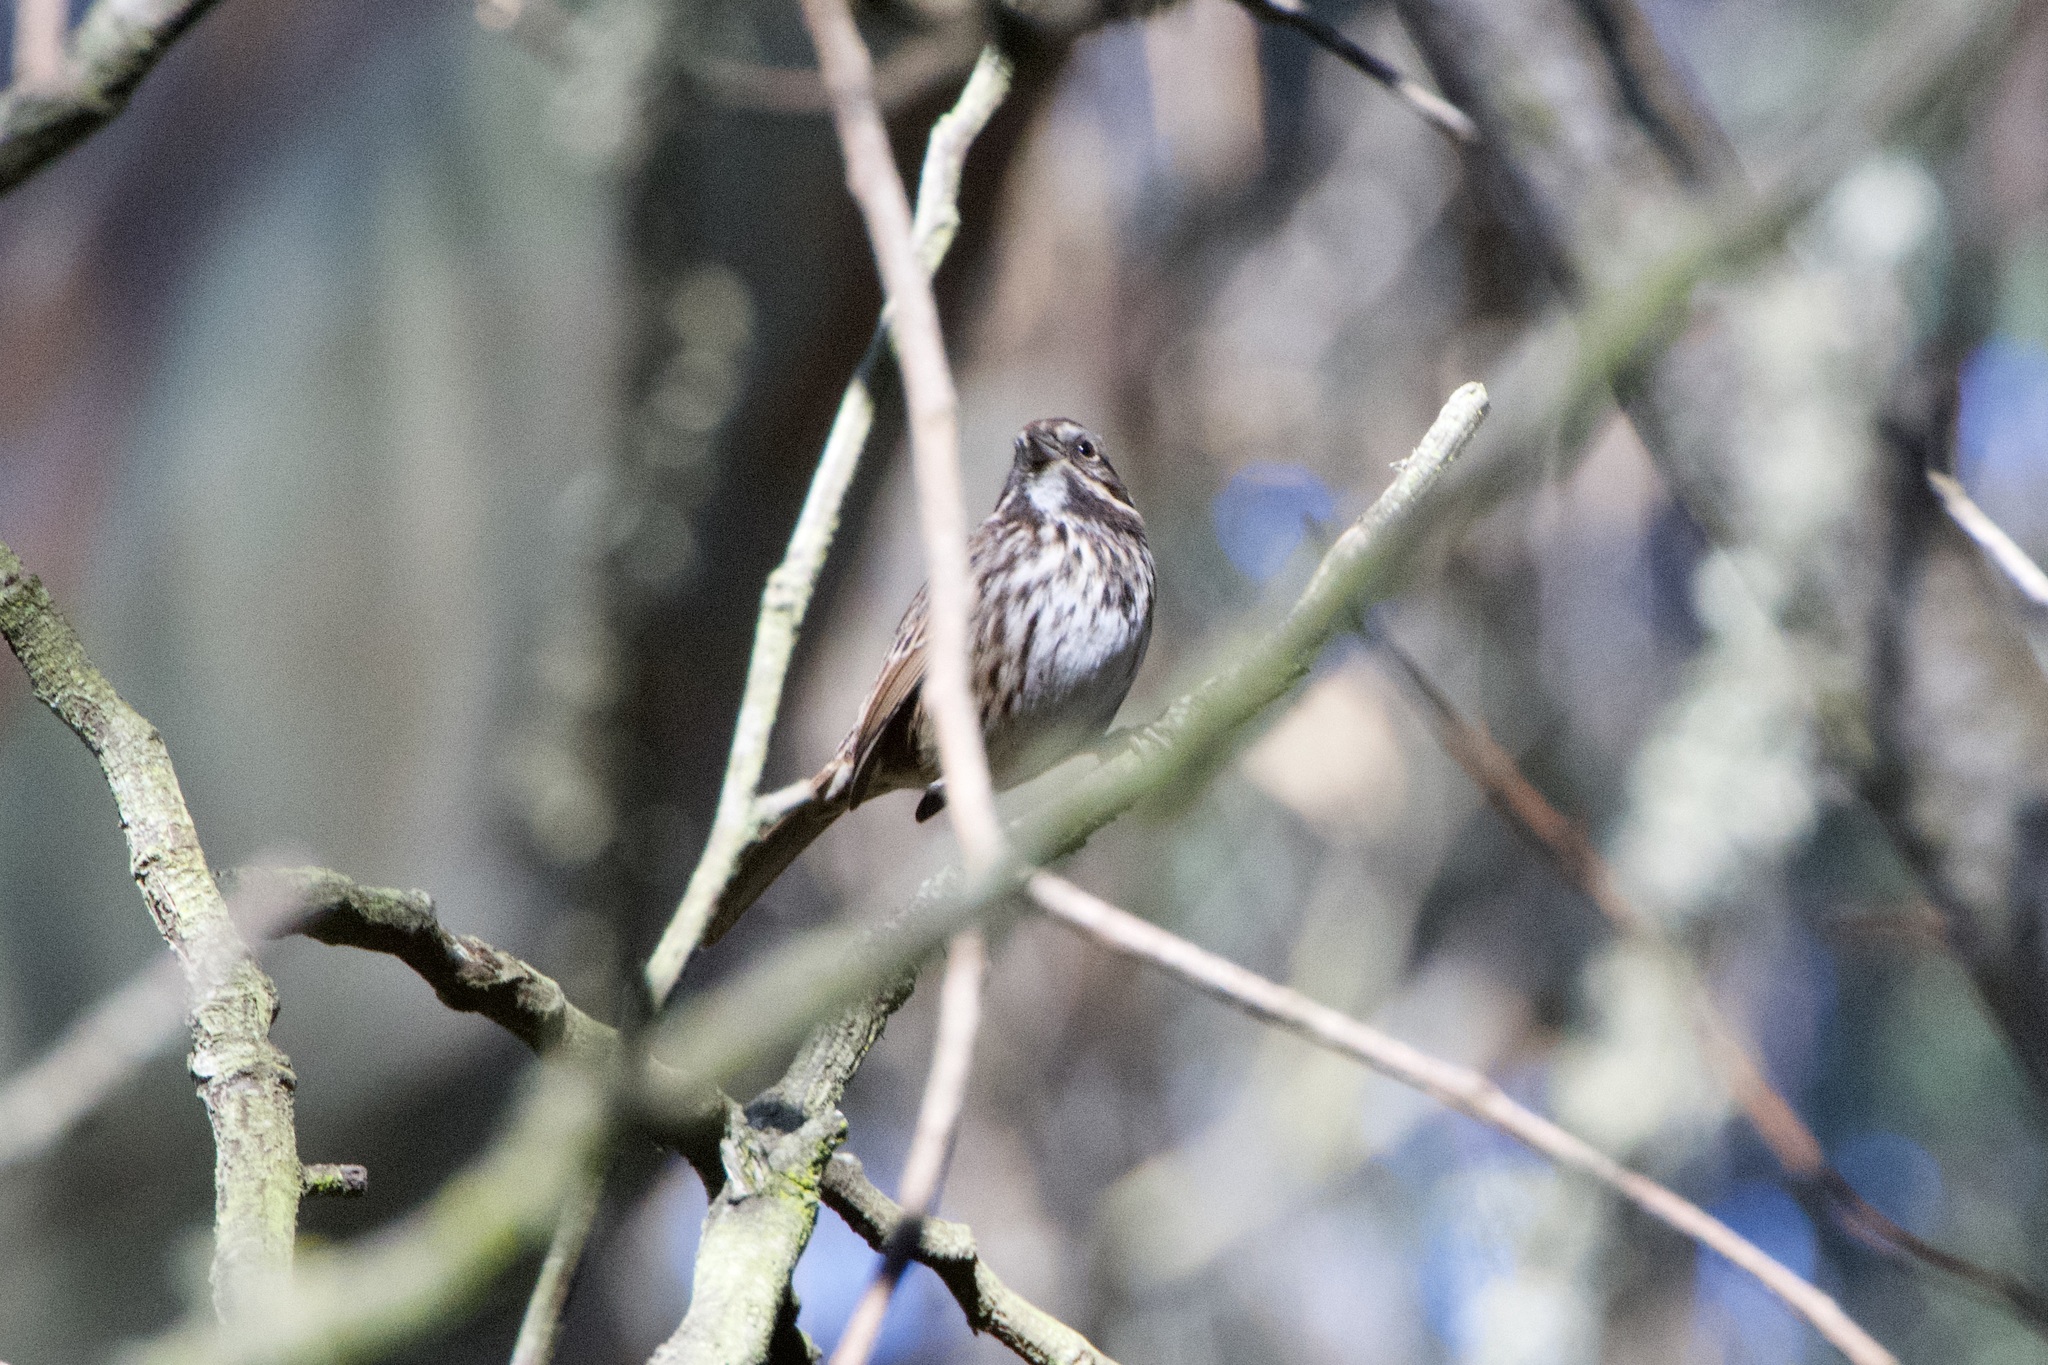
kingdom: Animalia
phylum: Chordata
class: Aves
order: Passeriformes
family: Passerellidae
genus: Melospiza
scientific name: Melospiza melodia
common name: Song sparrow
